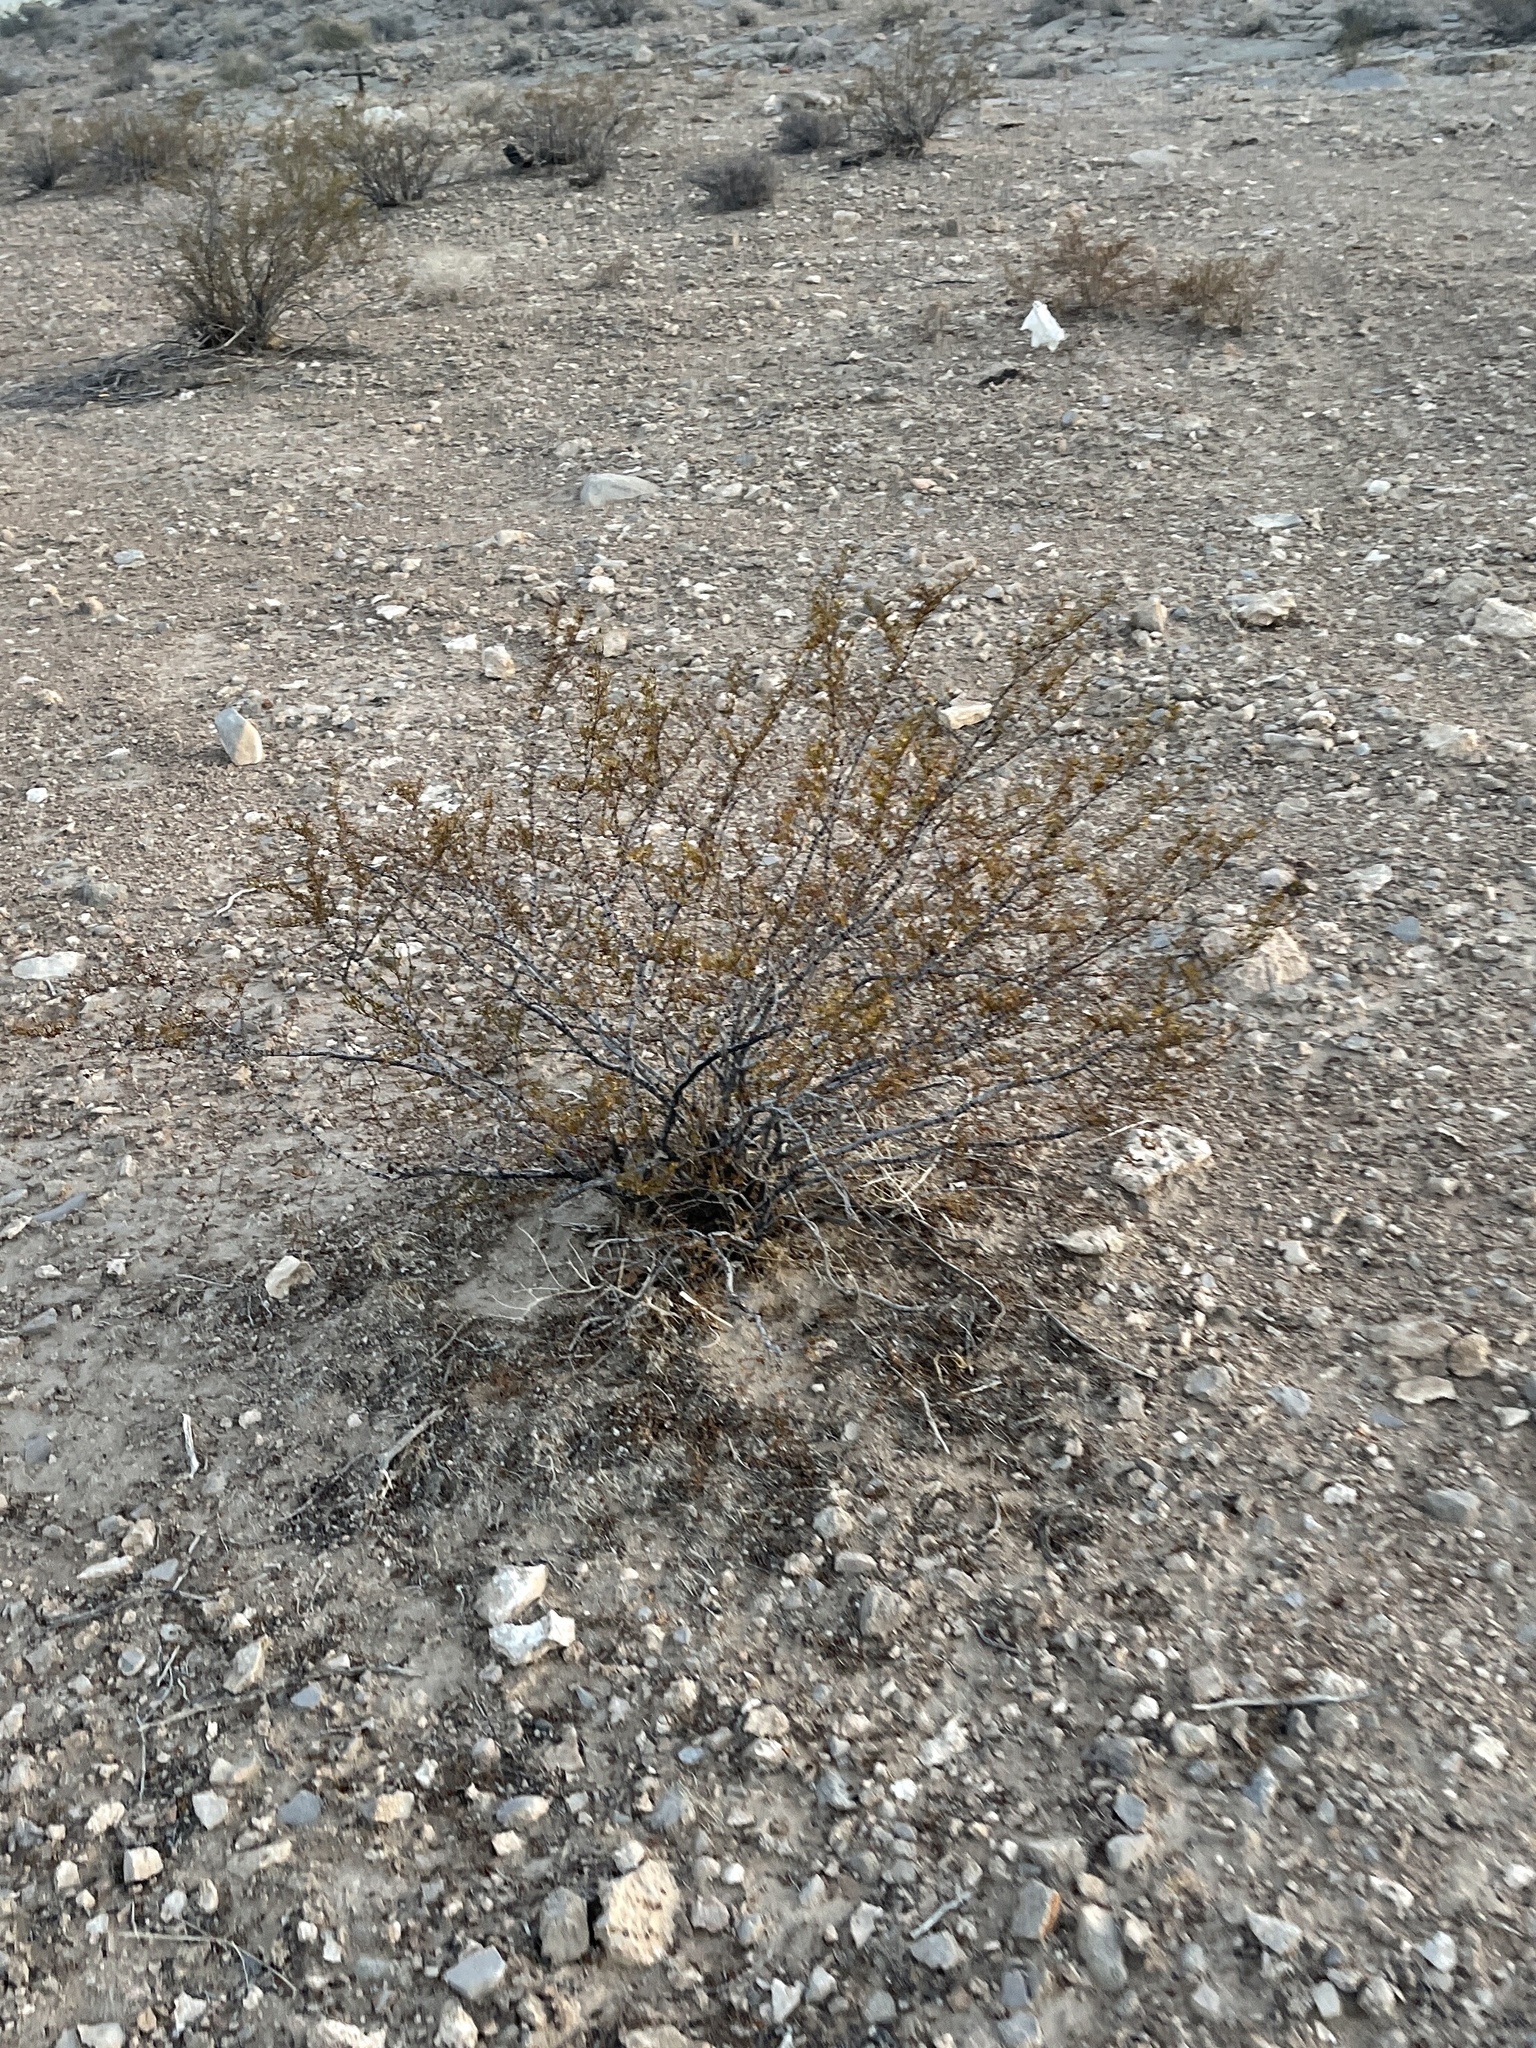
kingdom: Plantae
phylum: Tracheophyta
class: Magnoliopsida
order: Zygophyllales
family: Zygophyllaceae
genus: Larrea
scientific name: Larrea tridentata
